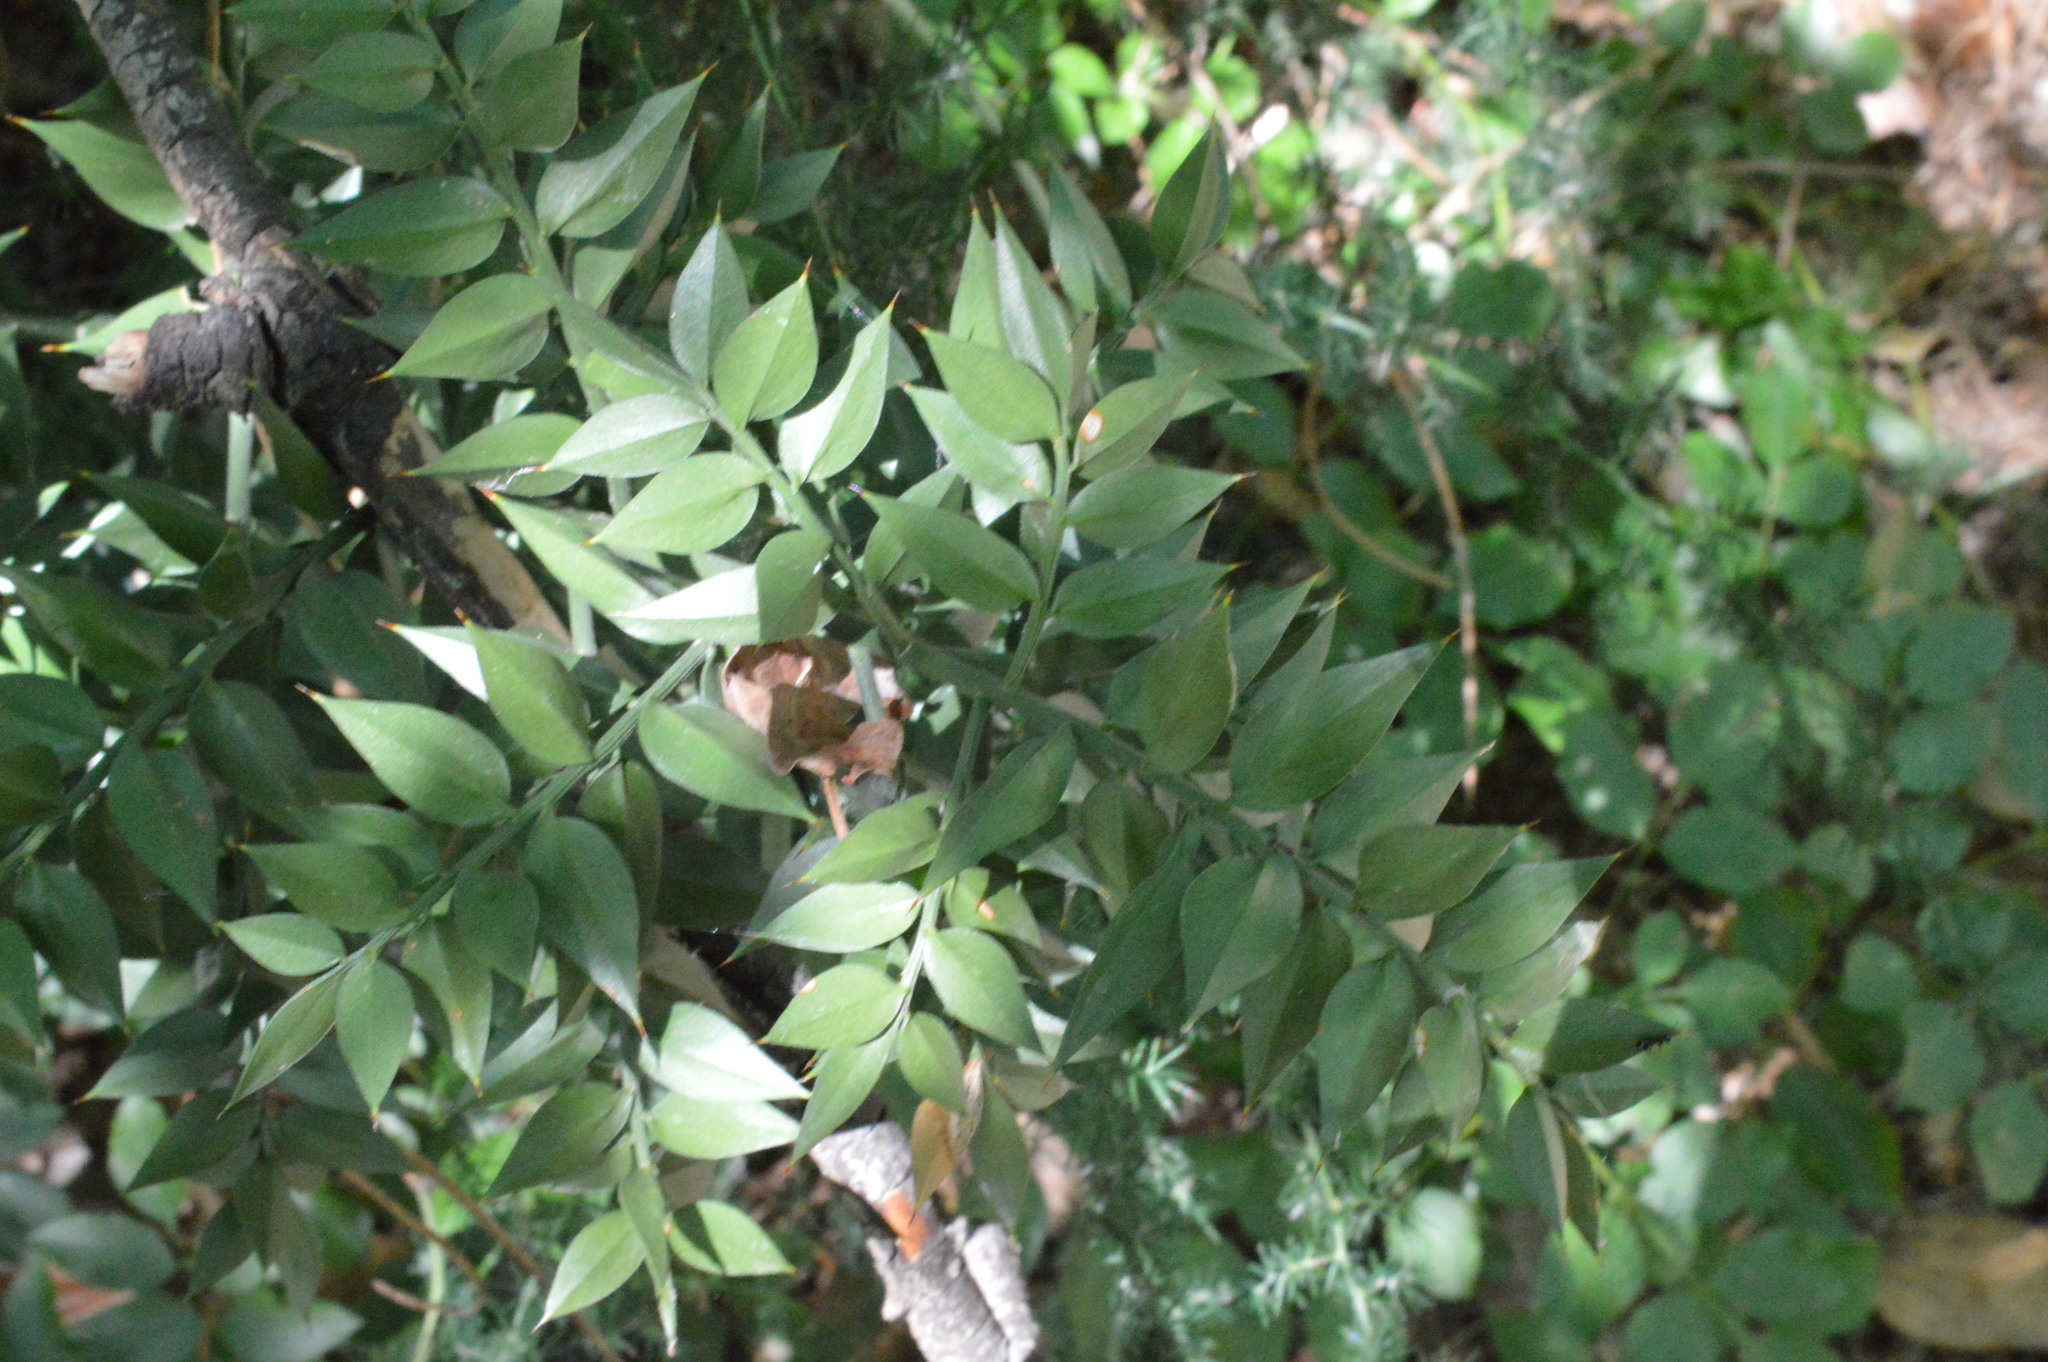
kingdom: Plantae
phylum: Tracheophyta
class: Liliopsida
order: Asparagales
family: Asparagaceae
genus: Ruscus
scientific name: Ruscus aculeatus
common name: Butcher's-broom
